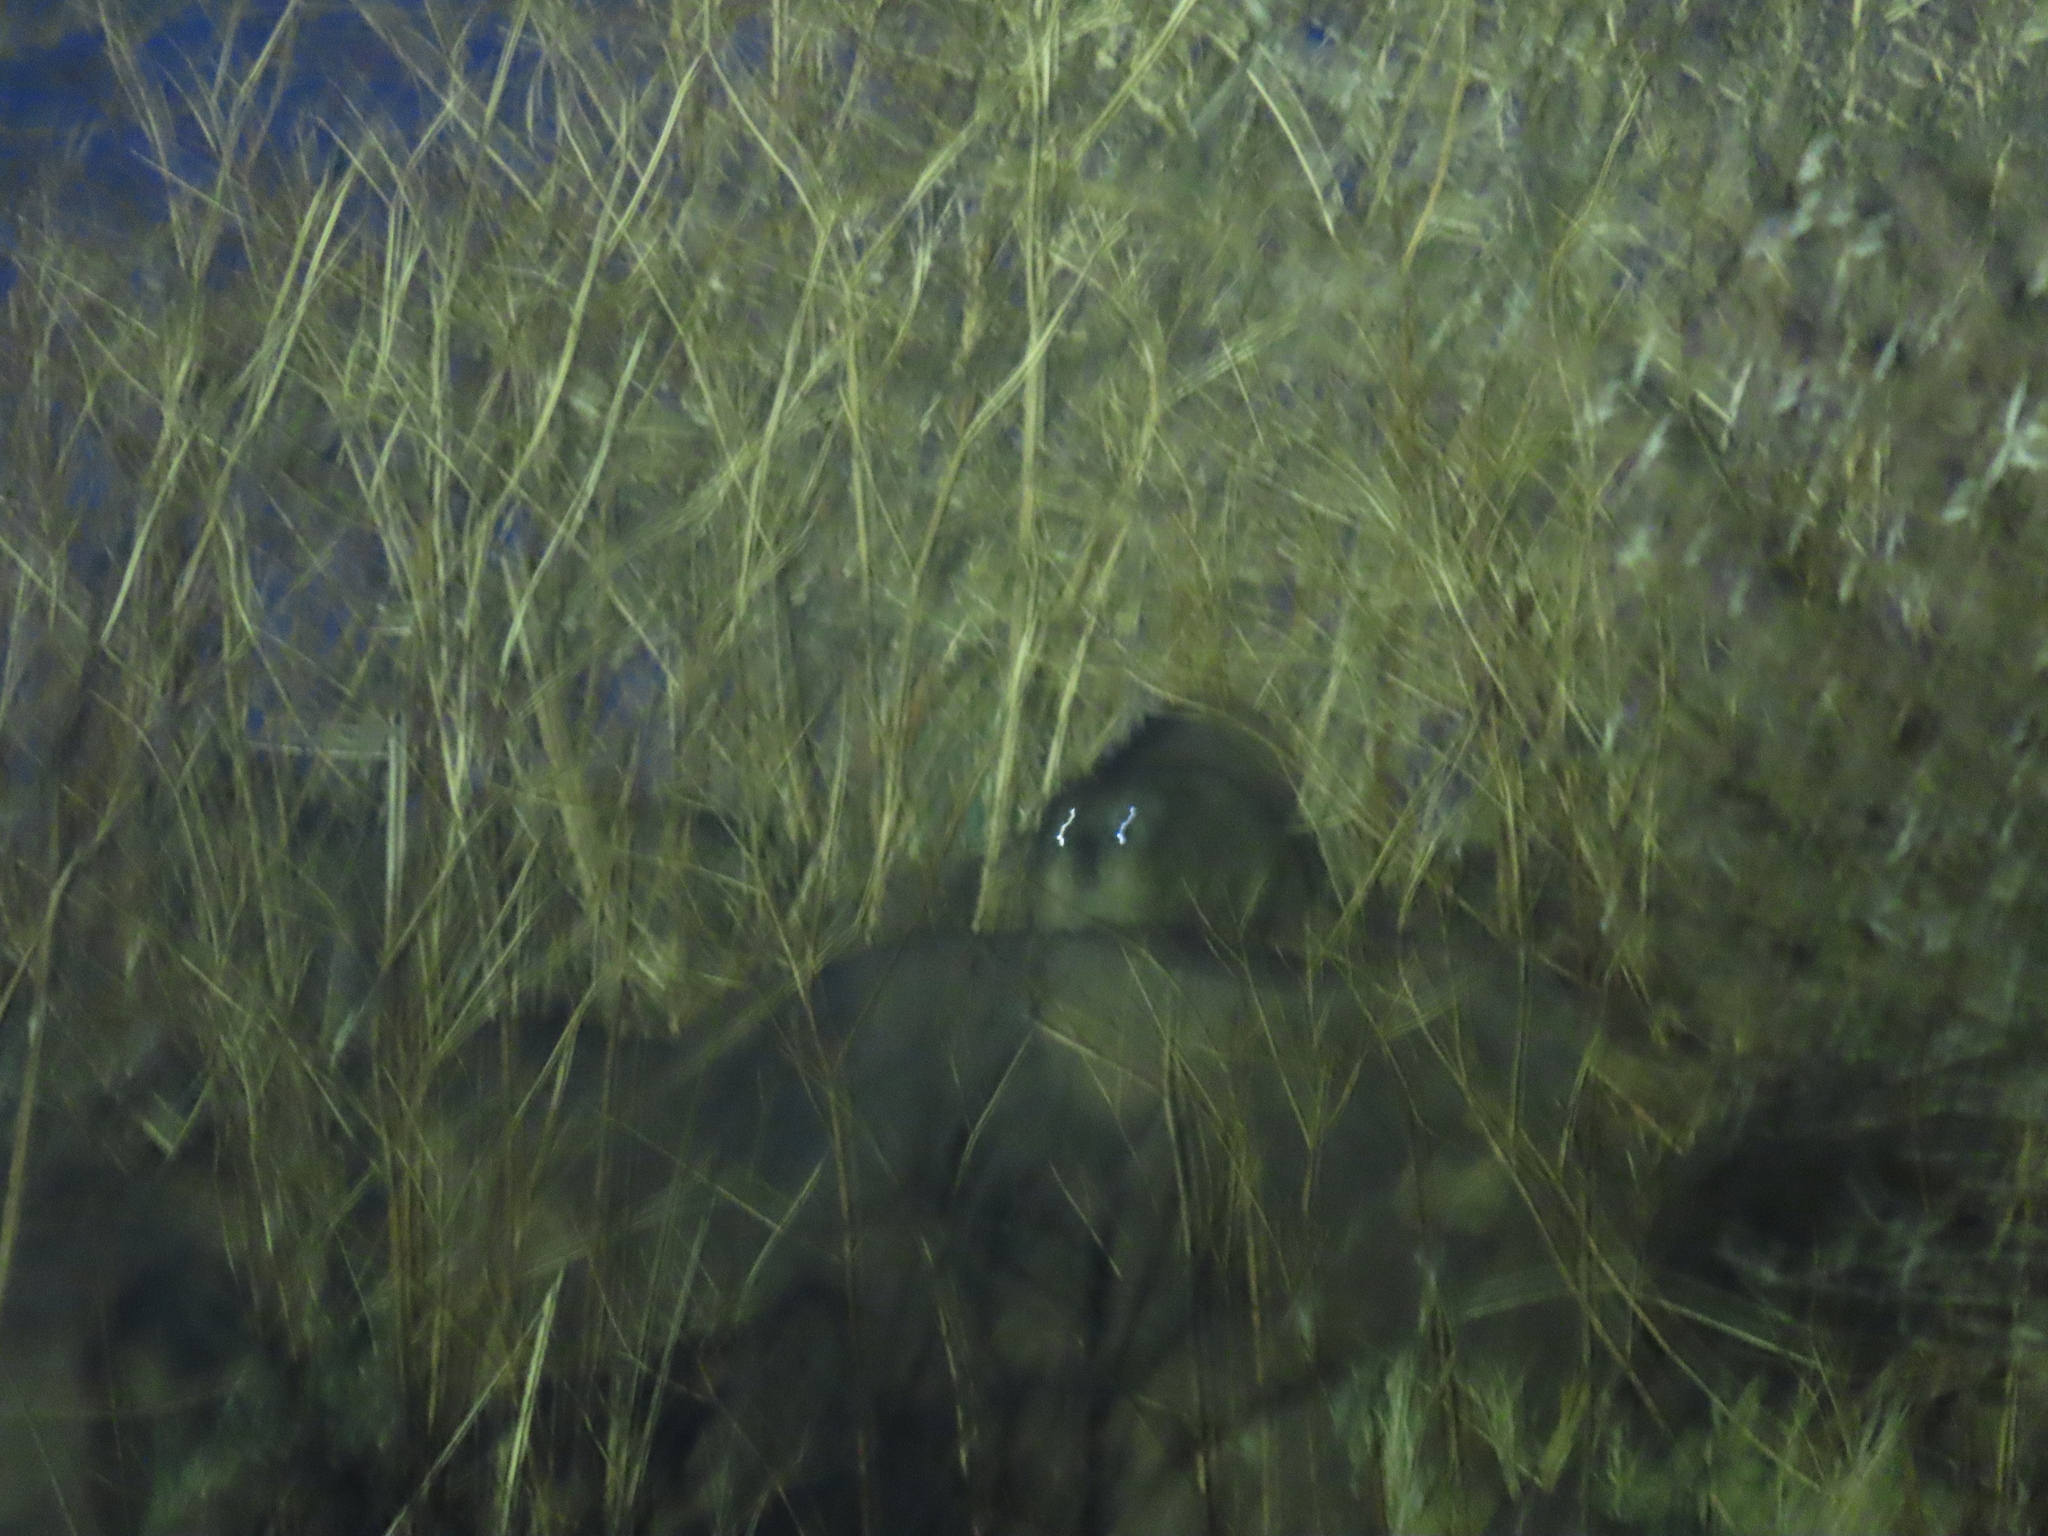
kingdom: Animalia
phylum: Chordata
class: Mammalia
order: Hyracoidea
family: Procaviidae
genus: Procavia
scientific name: Procavia capensis
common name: Rock hyrax
